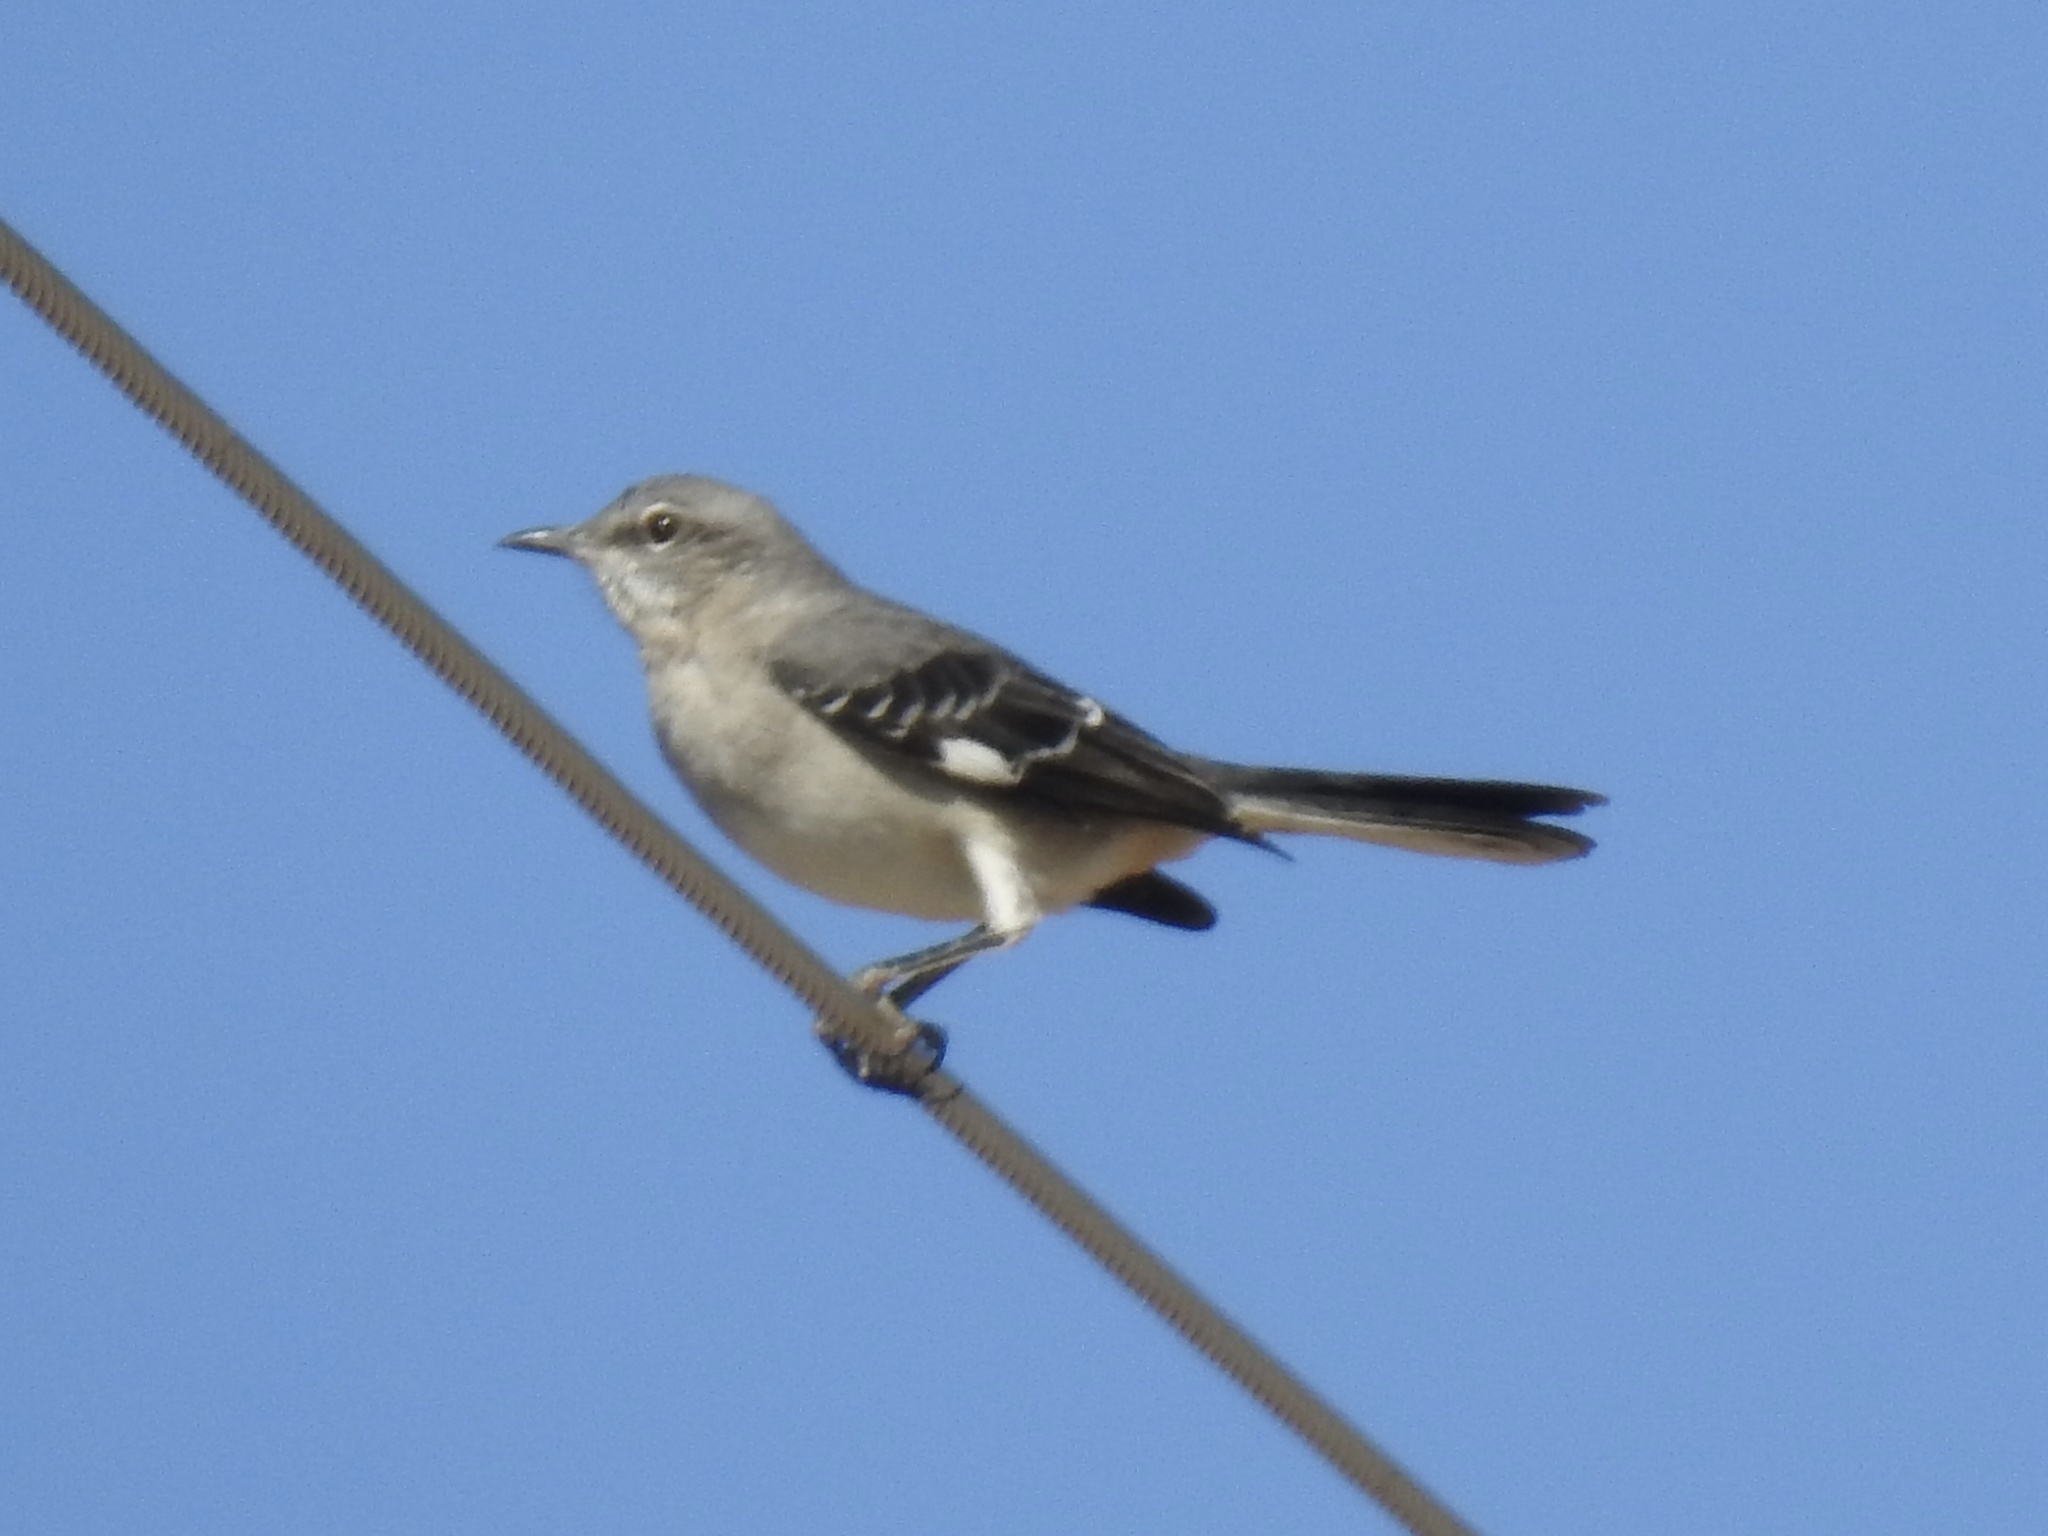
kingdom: Animalia
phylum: Chordata
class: Aves
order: Passeriformes
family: Mimidae
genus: Mimus
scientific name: Mimus polyglottos
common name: Northern mockingbird
